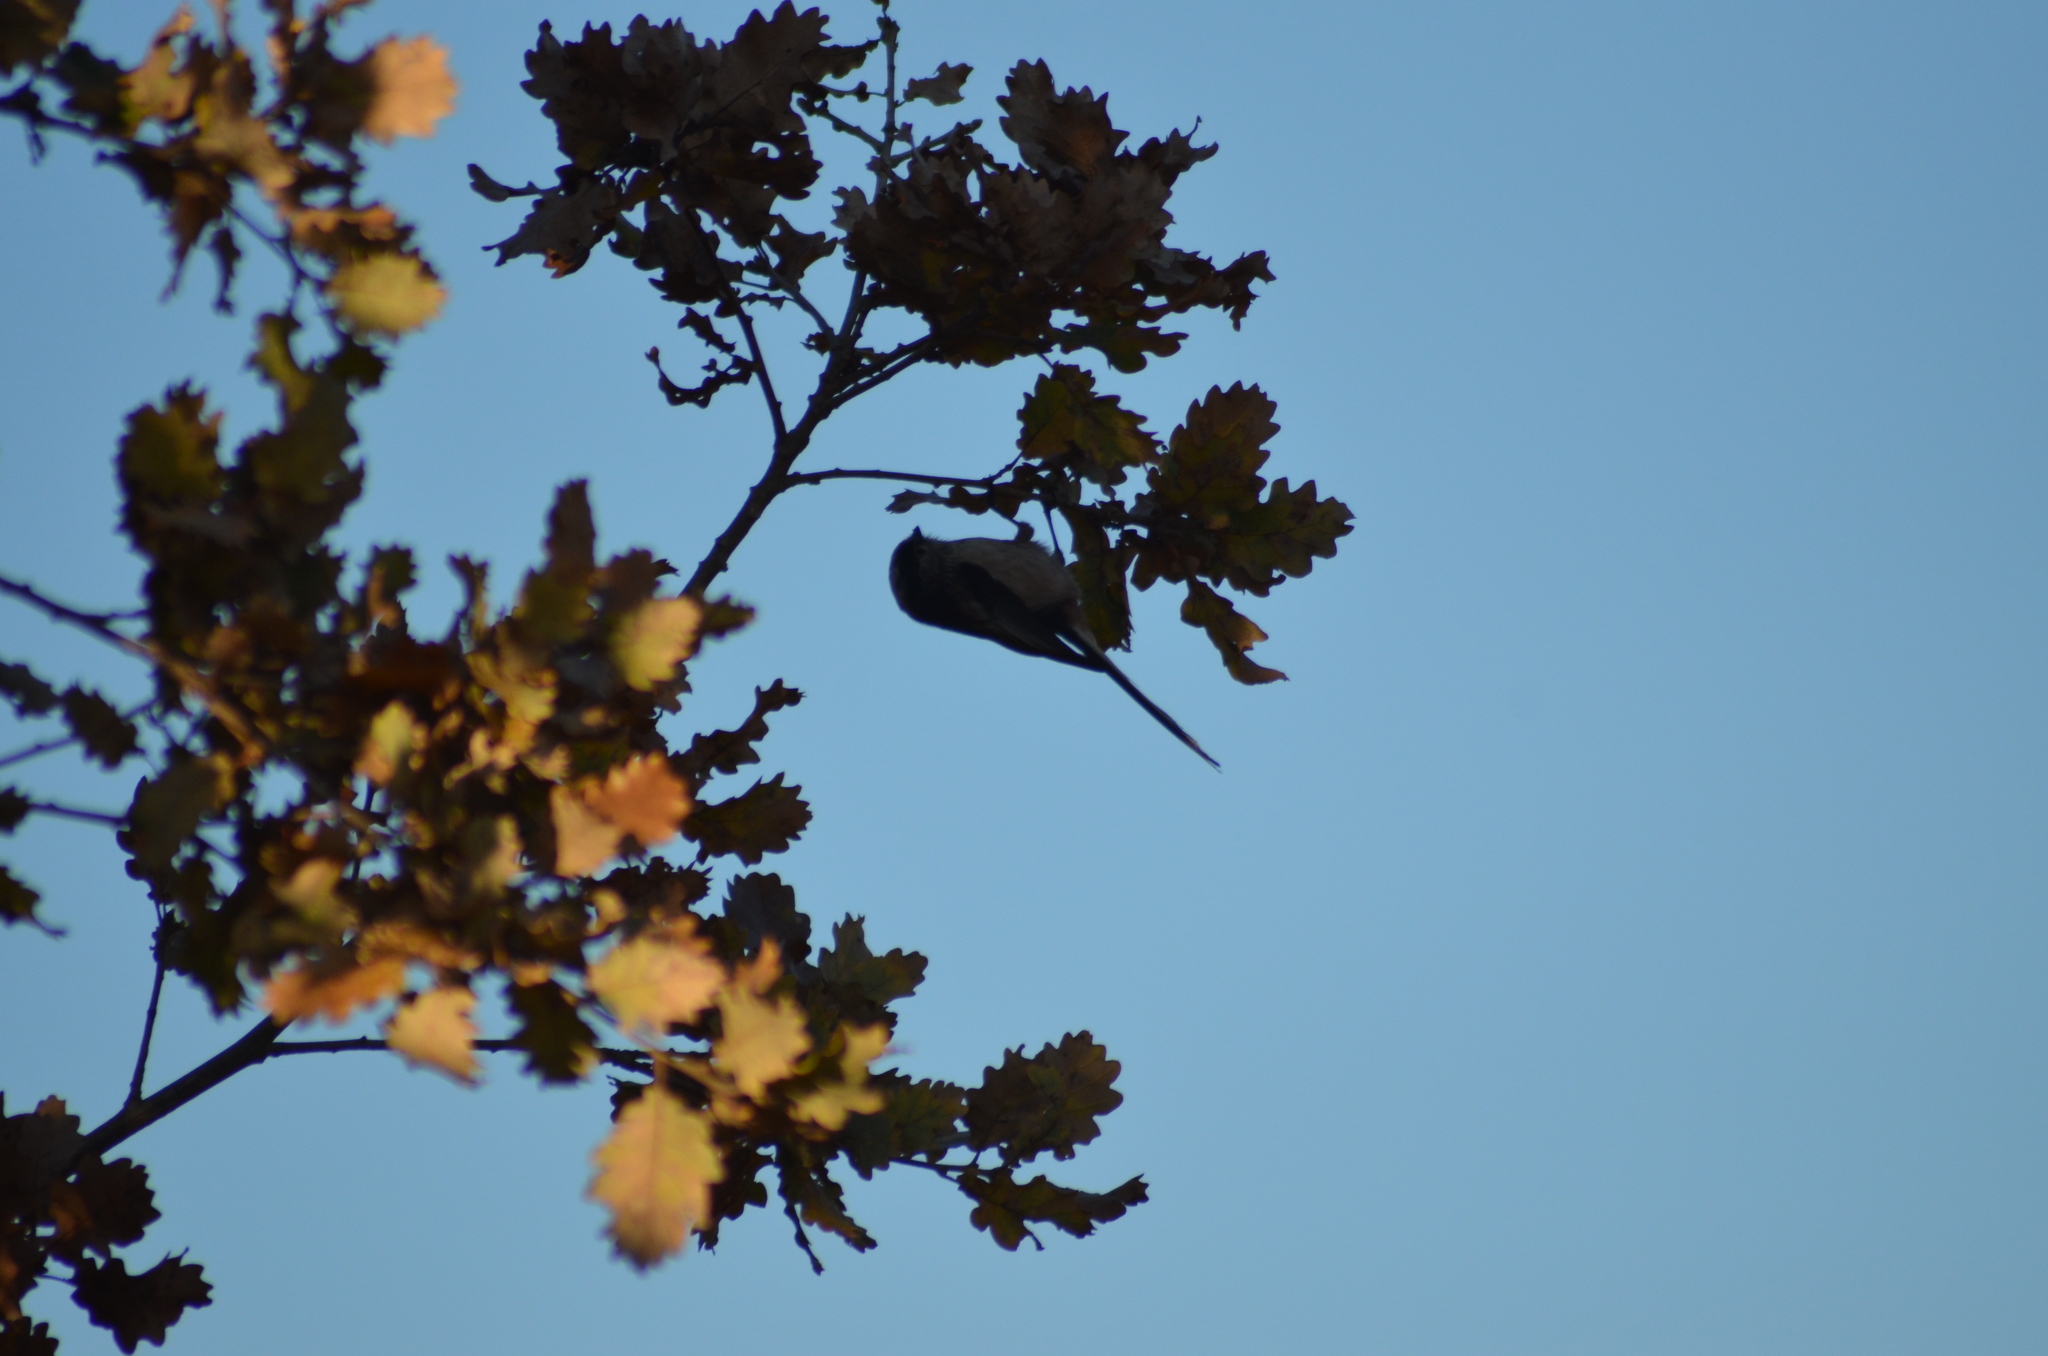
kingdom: Animalia
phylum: Chordata
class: Aves
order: Passeriformes
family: Aegithalidae
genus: Aegithalos
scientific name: Aegithalos caudatus
